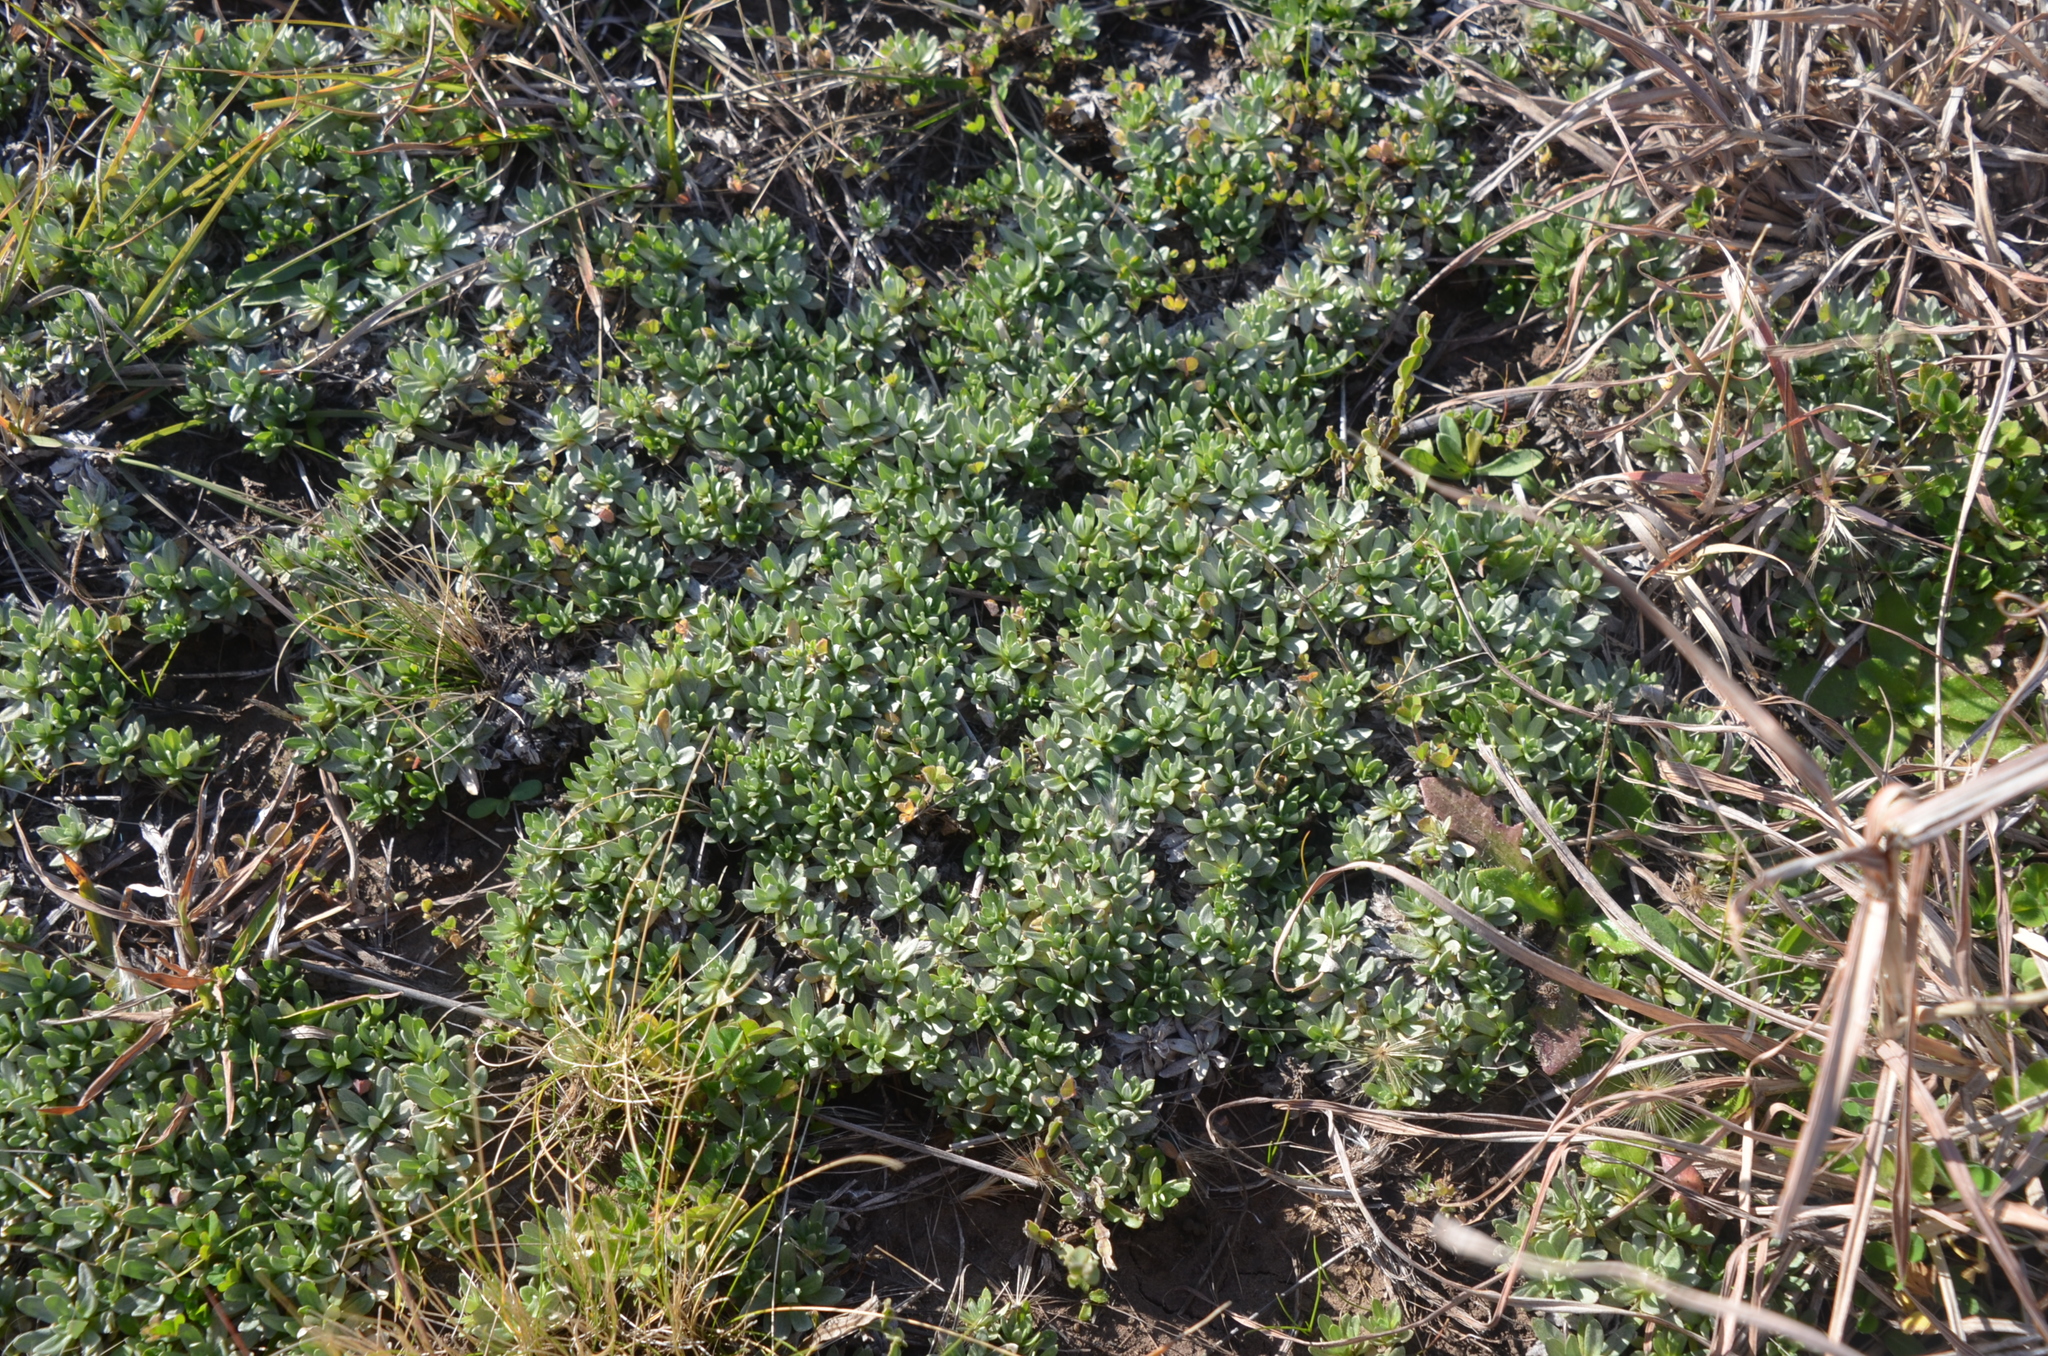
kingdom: Plantae
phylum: Tracheophyta
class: Magnoliopsida
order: Asterales
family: Asteraceae
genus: Chevreulia
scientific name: Chevreulia sarmentosa
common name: Sunflower
